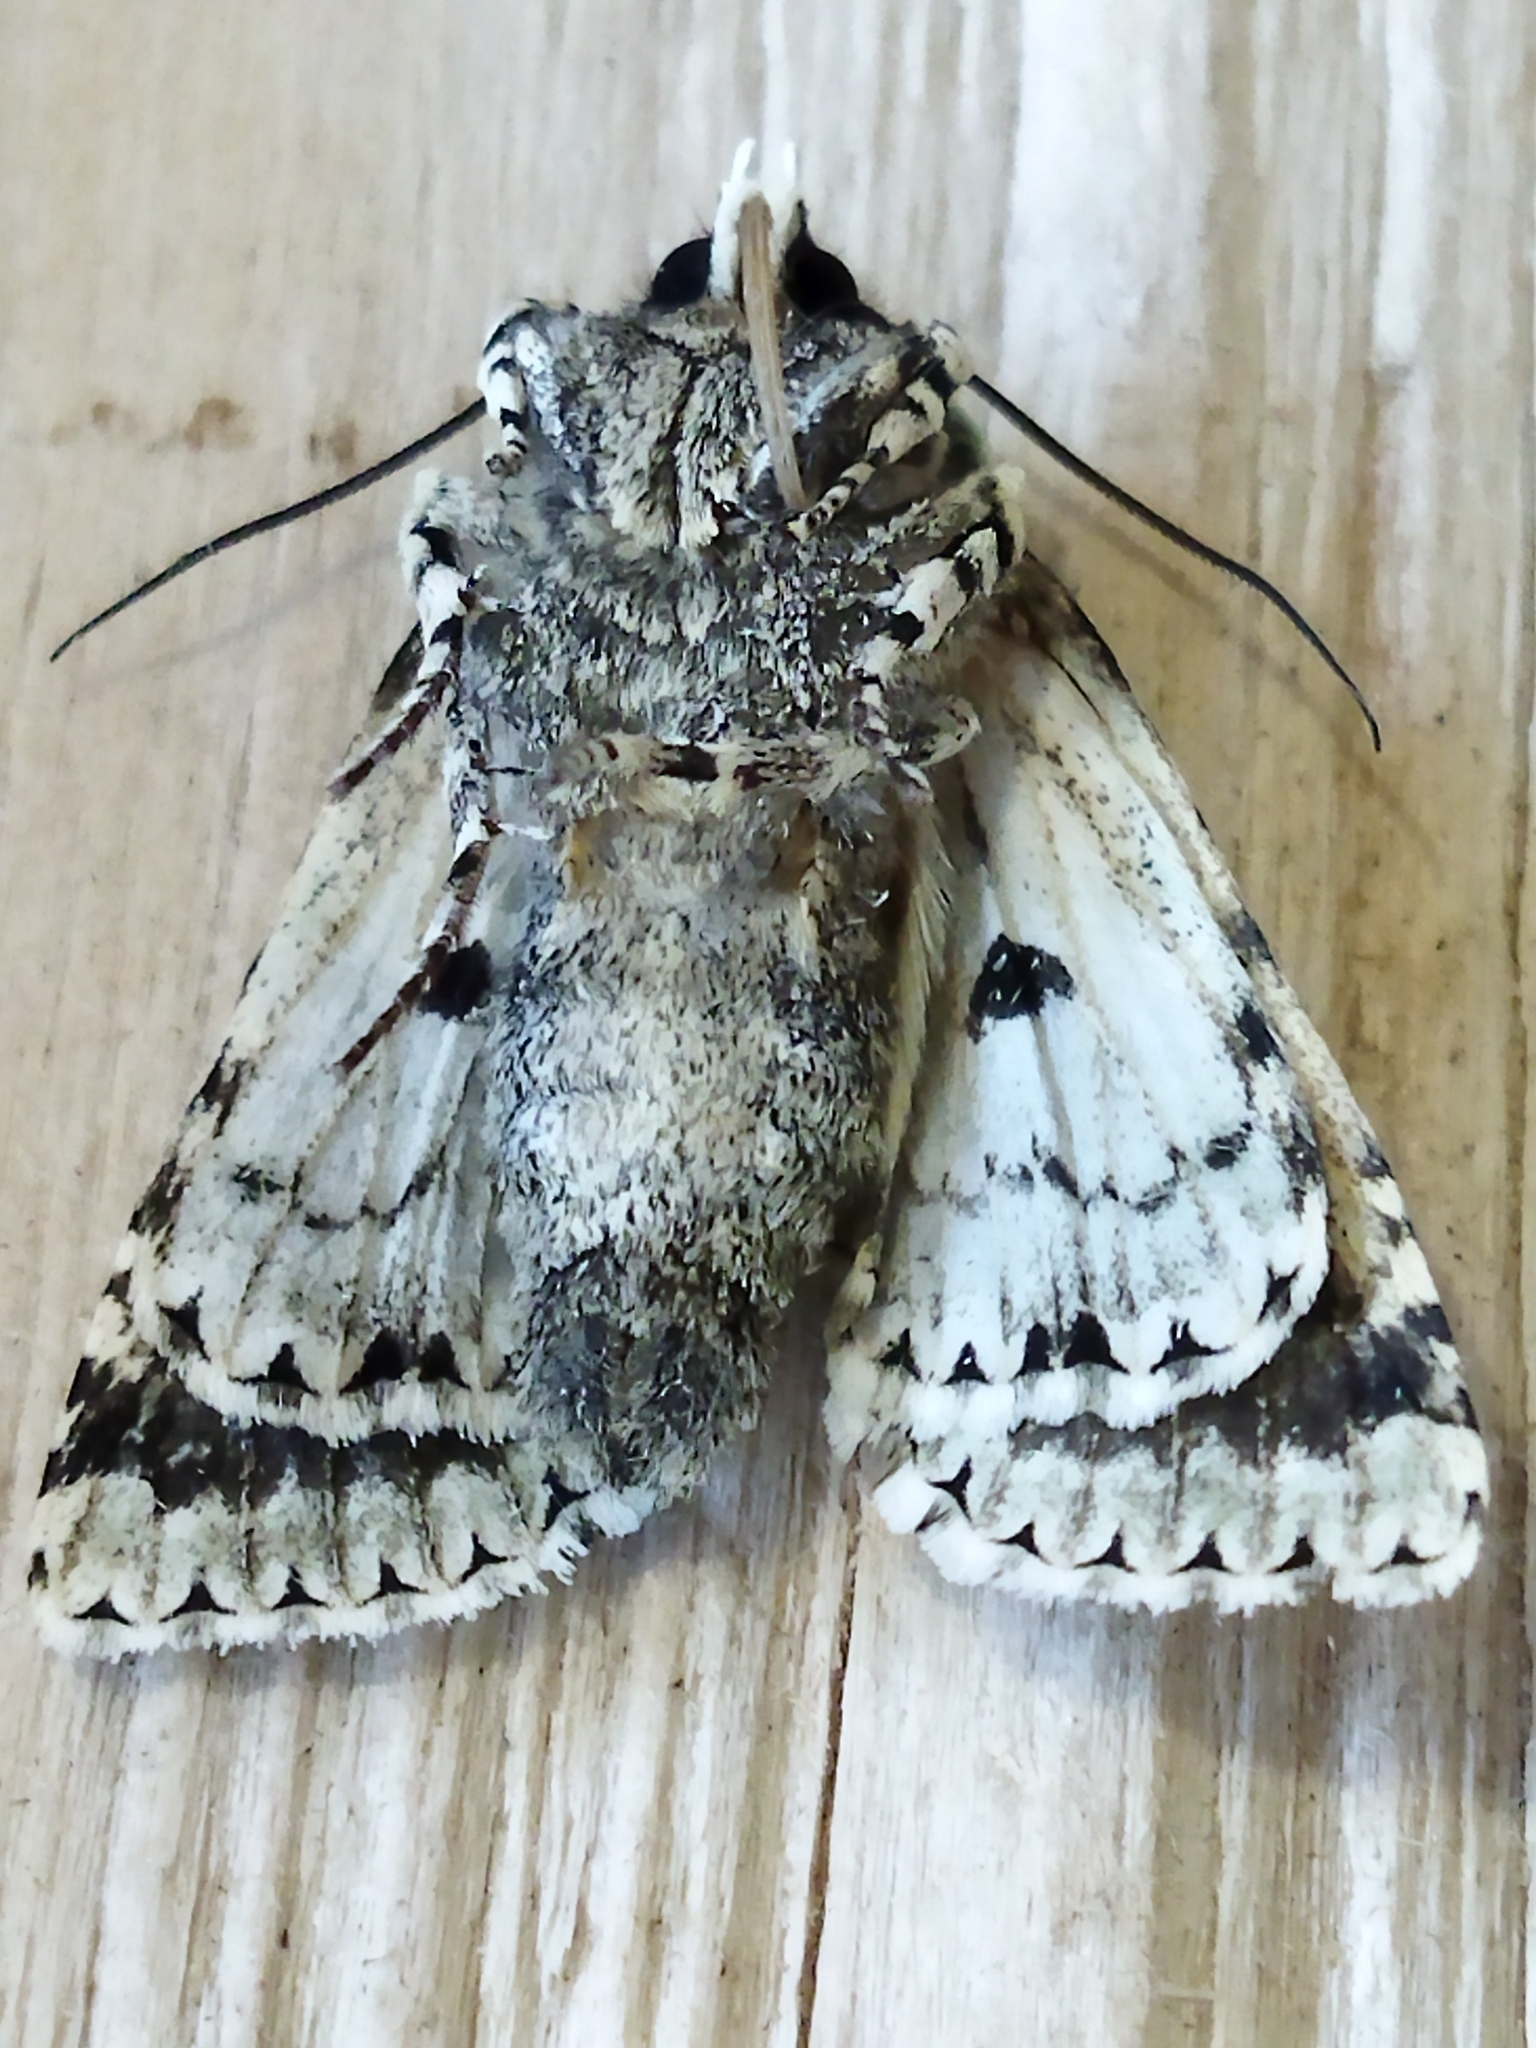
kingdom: Animalia
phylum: Arthropoda
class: Insecta
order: Lepidoptera
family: Noctuidae
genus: Griposia
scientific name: Griposia aprilina
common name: Merveille du jour
